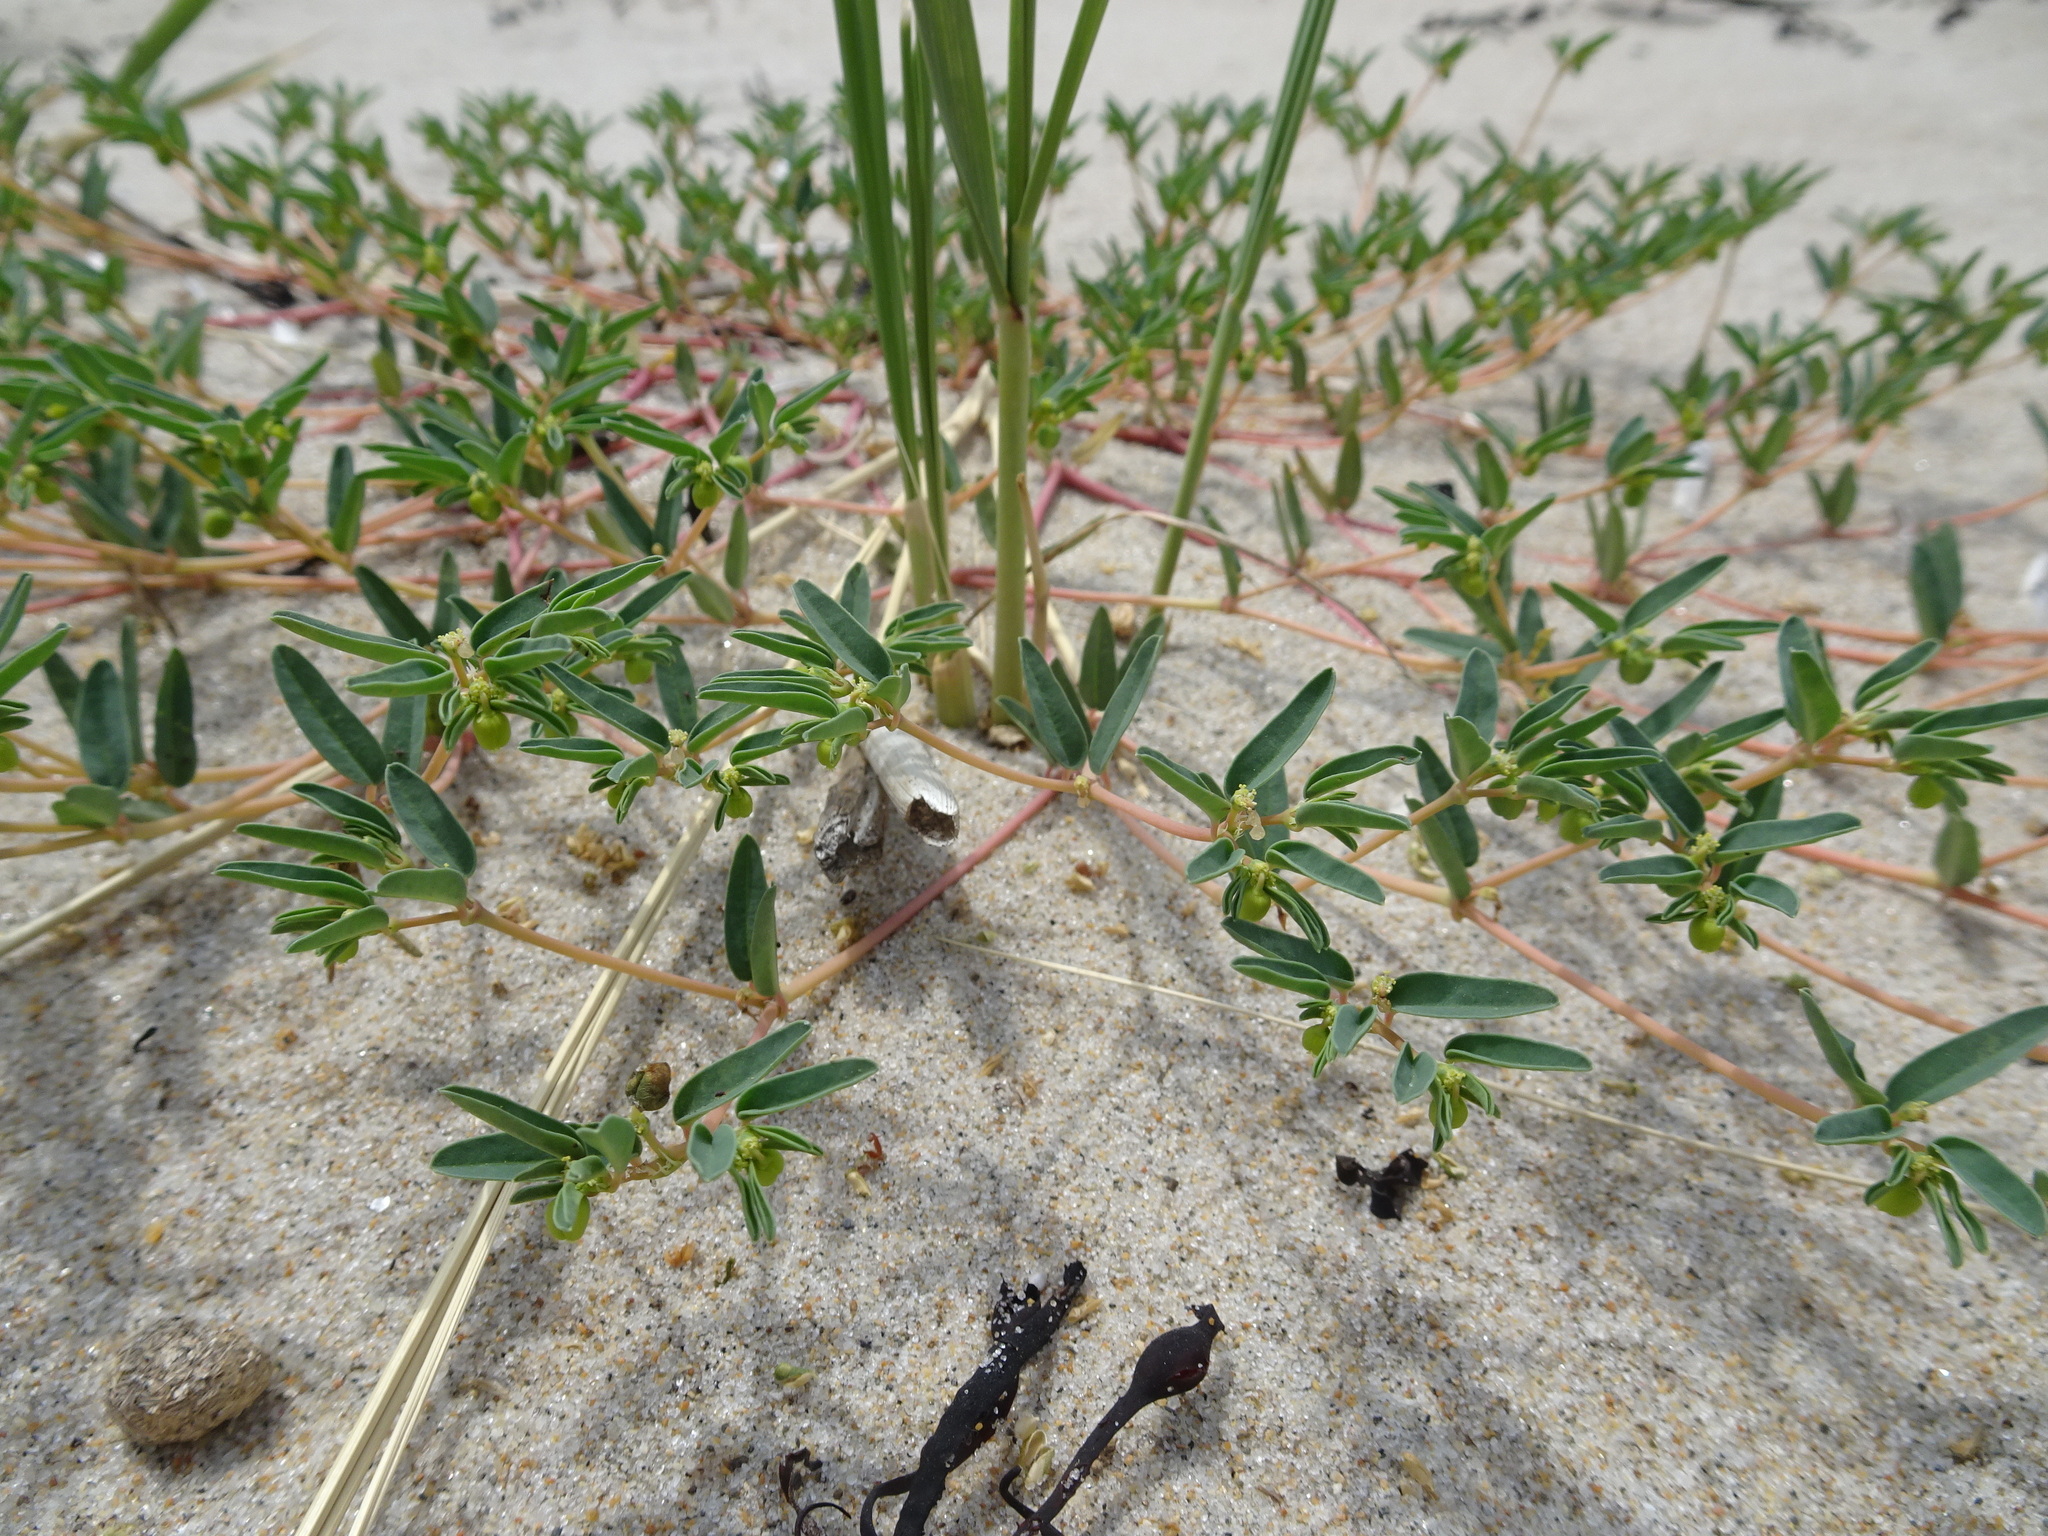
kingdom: Plantae
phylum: Tracheophyta
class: Magnoliopsida
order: Malpighiales
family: Euphorbiaceae
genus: Euphorbia
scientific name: Euphorbia polygonifolia
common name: Knotweed spurge
